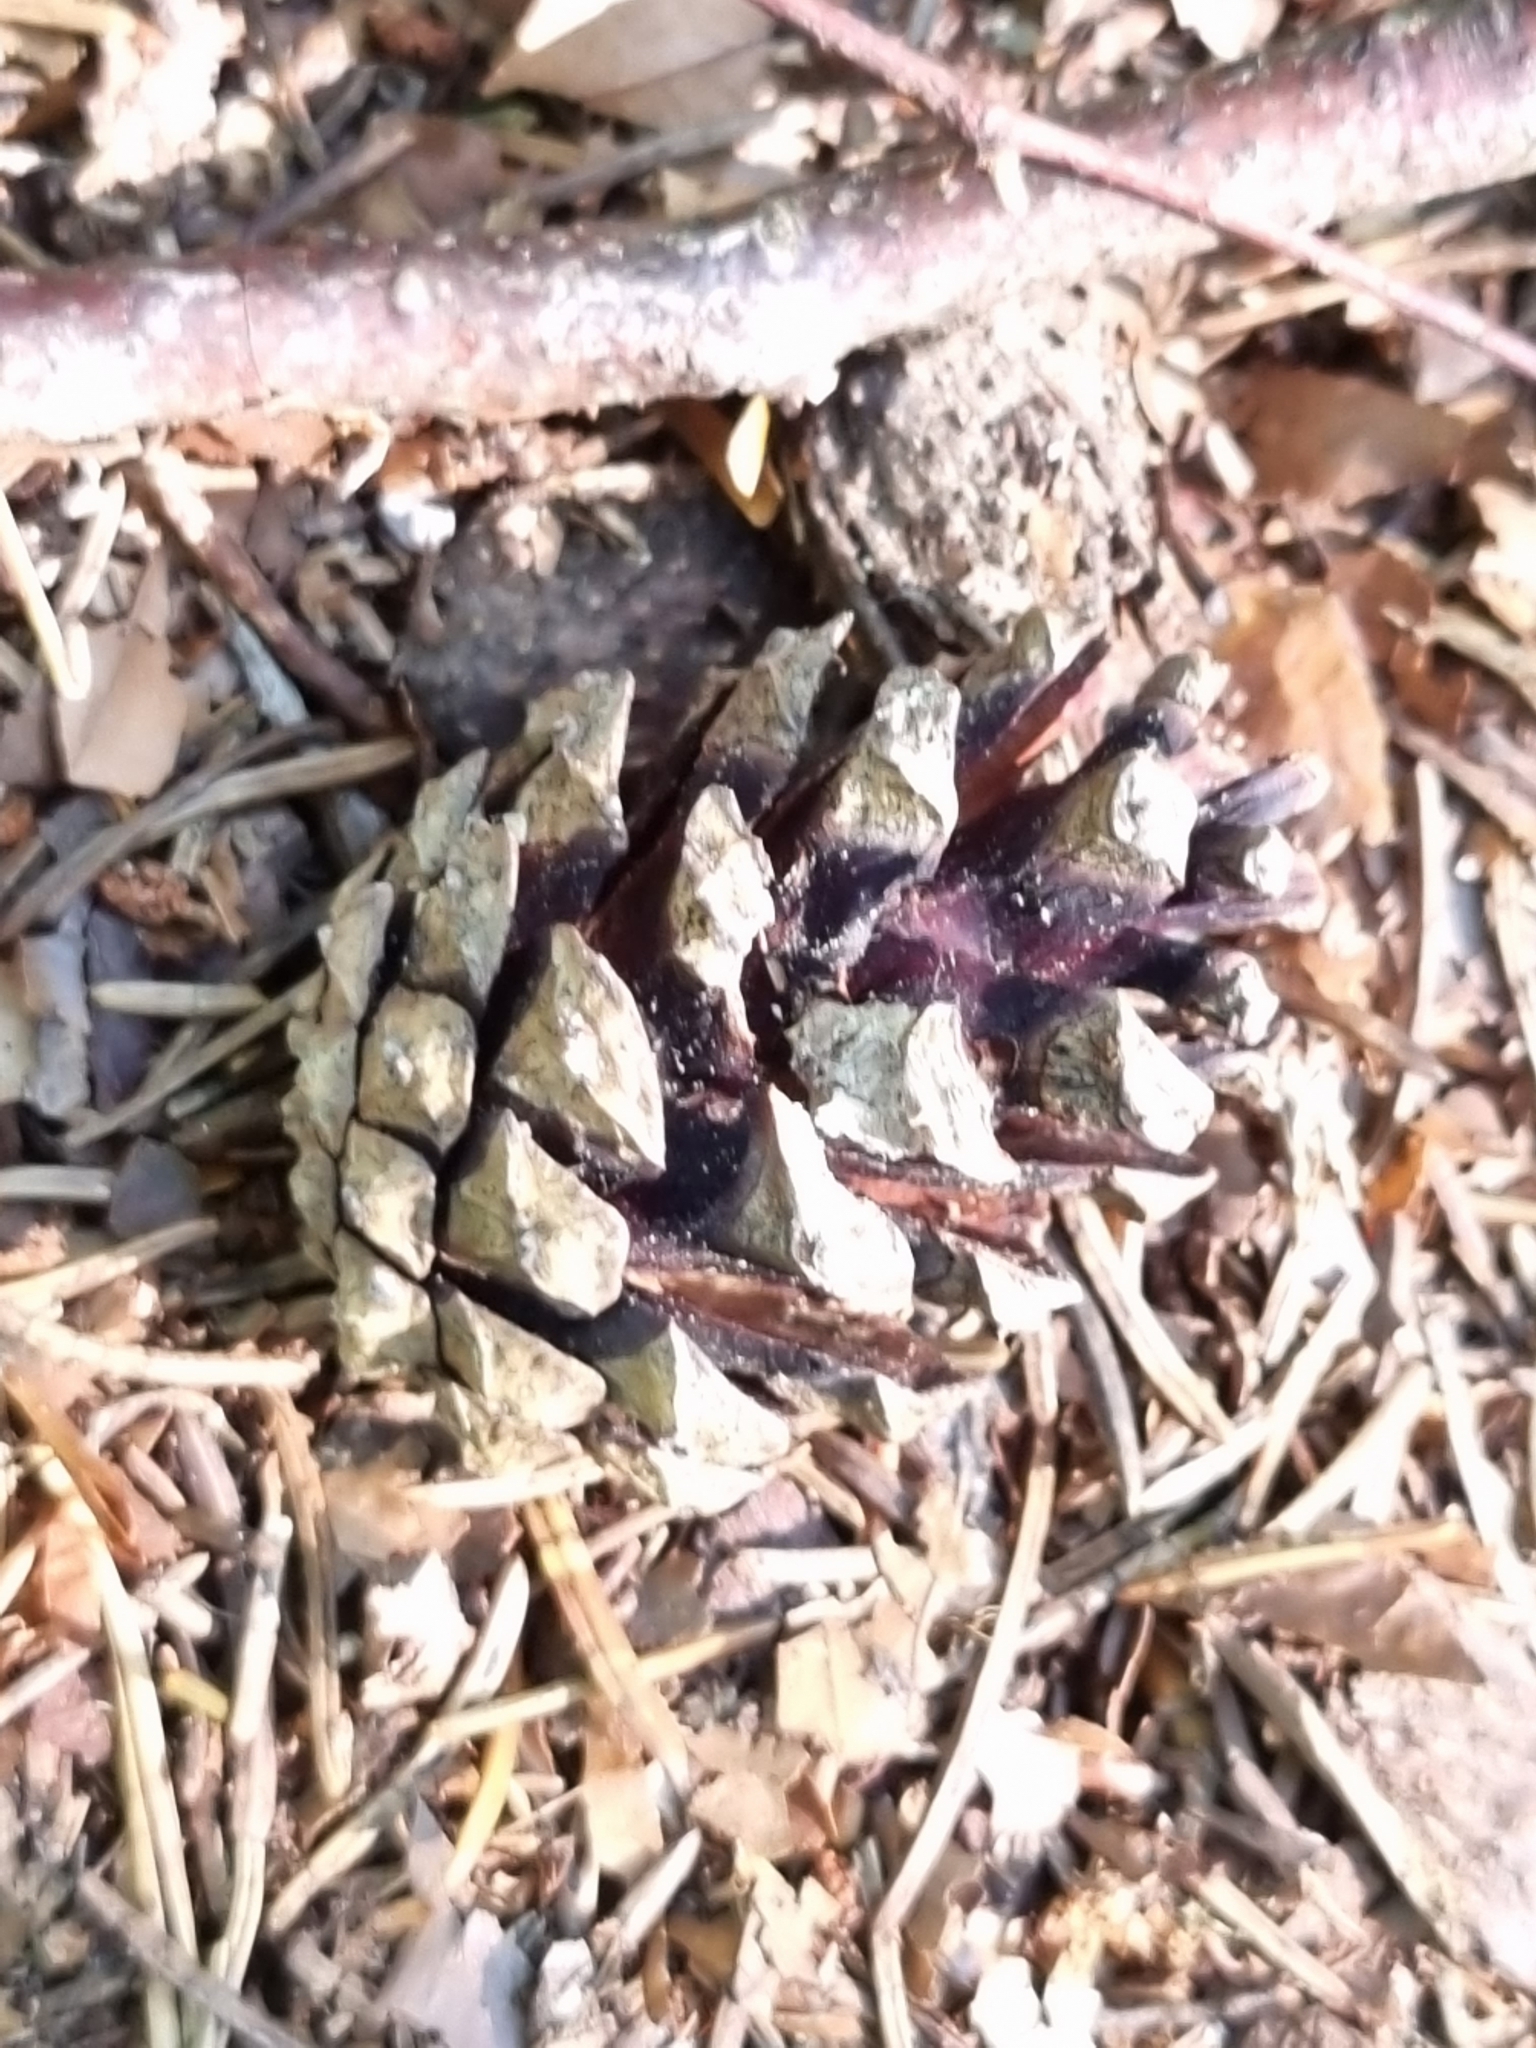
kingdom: Plantae
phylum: Tracheophyta
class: Pinopsida
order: Pinales
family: Pinaceae
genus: Pinus
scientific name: Pinus sylvestris
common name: Scots pine
